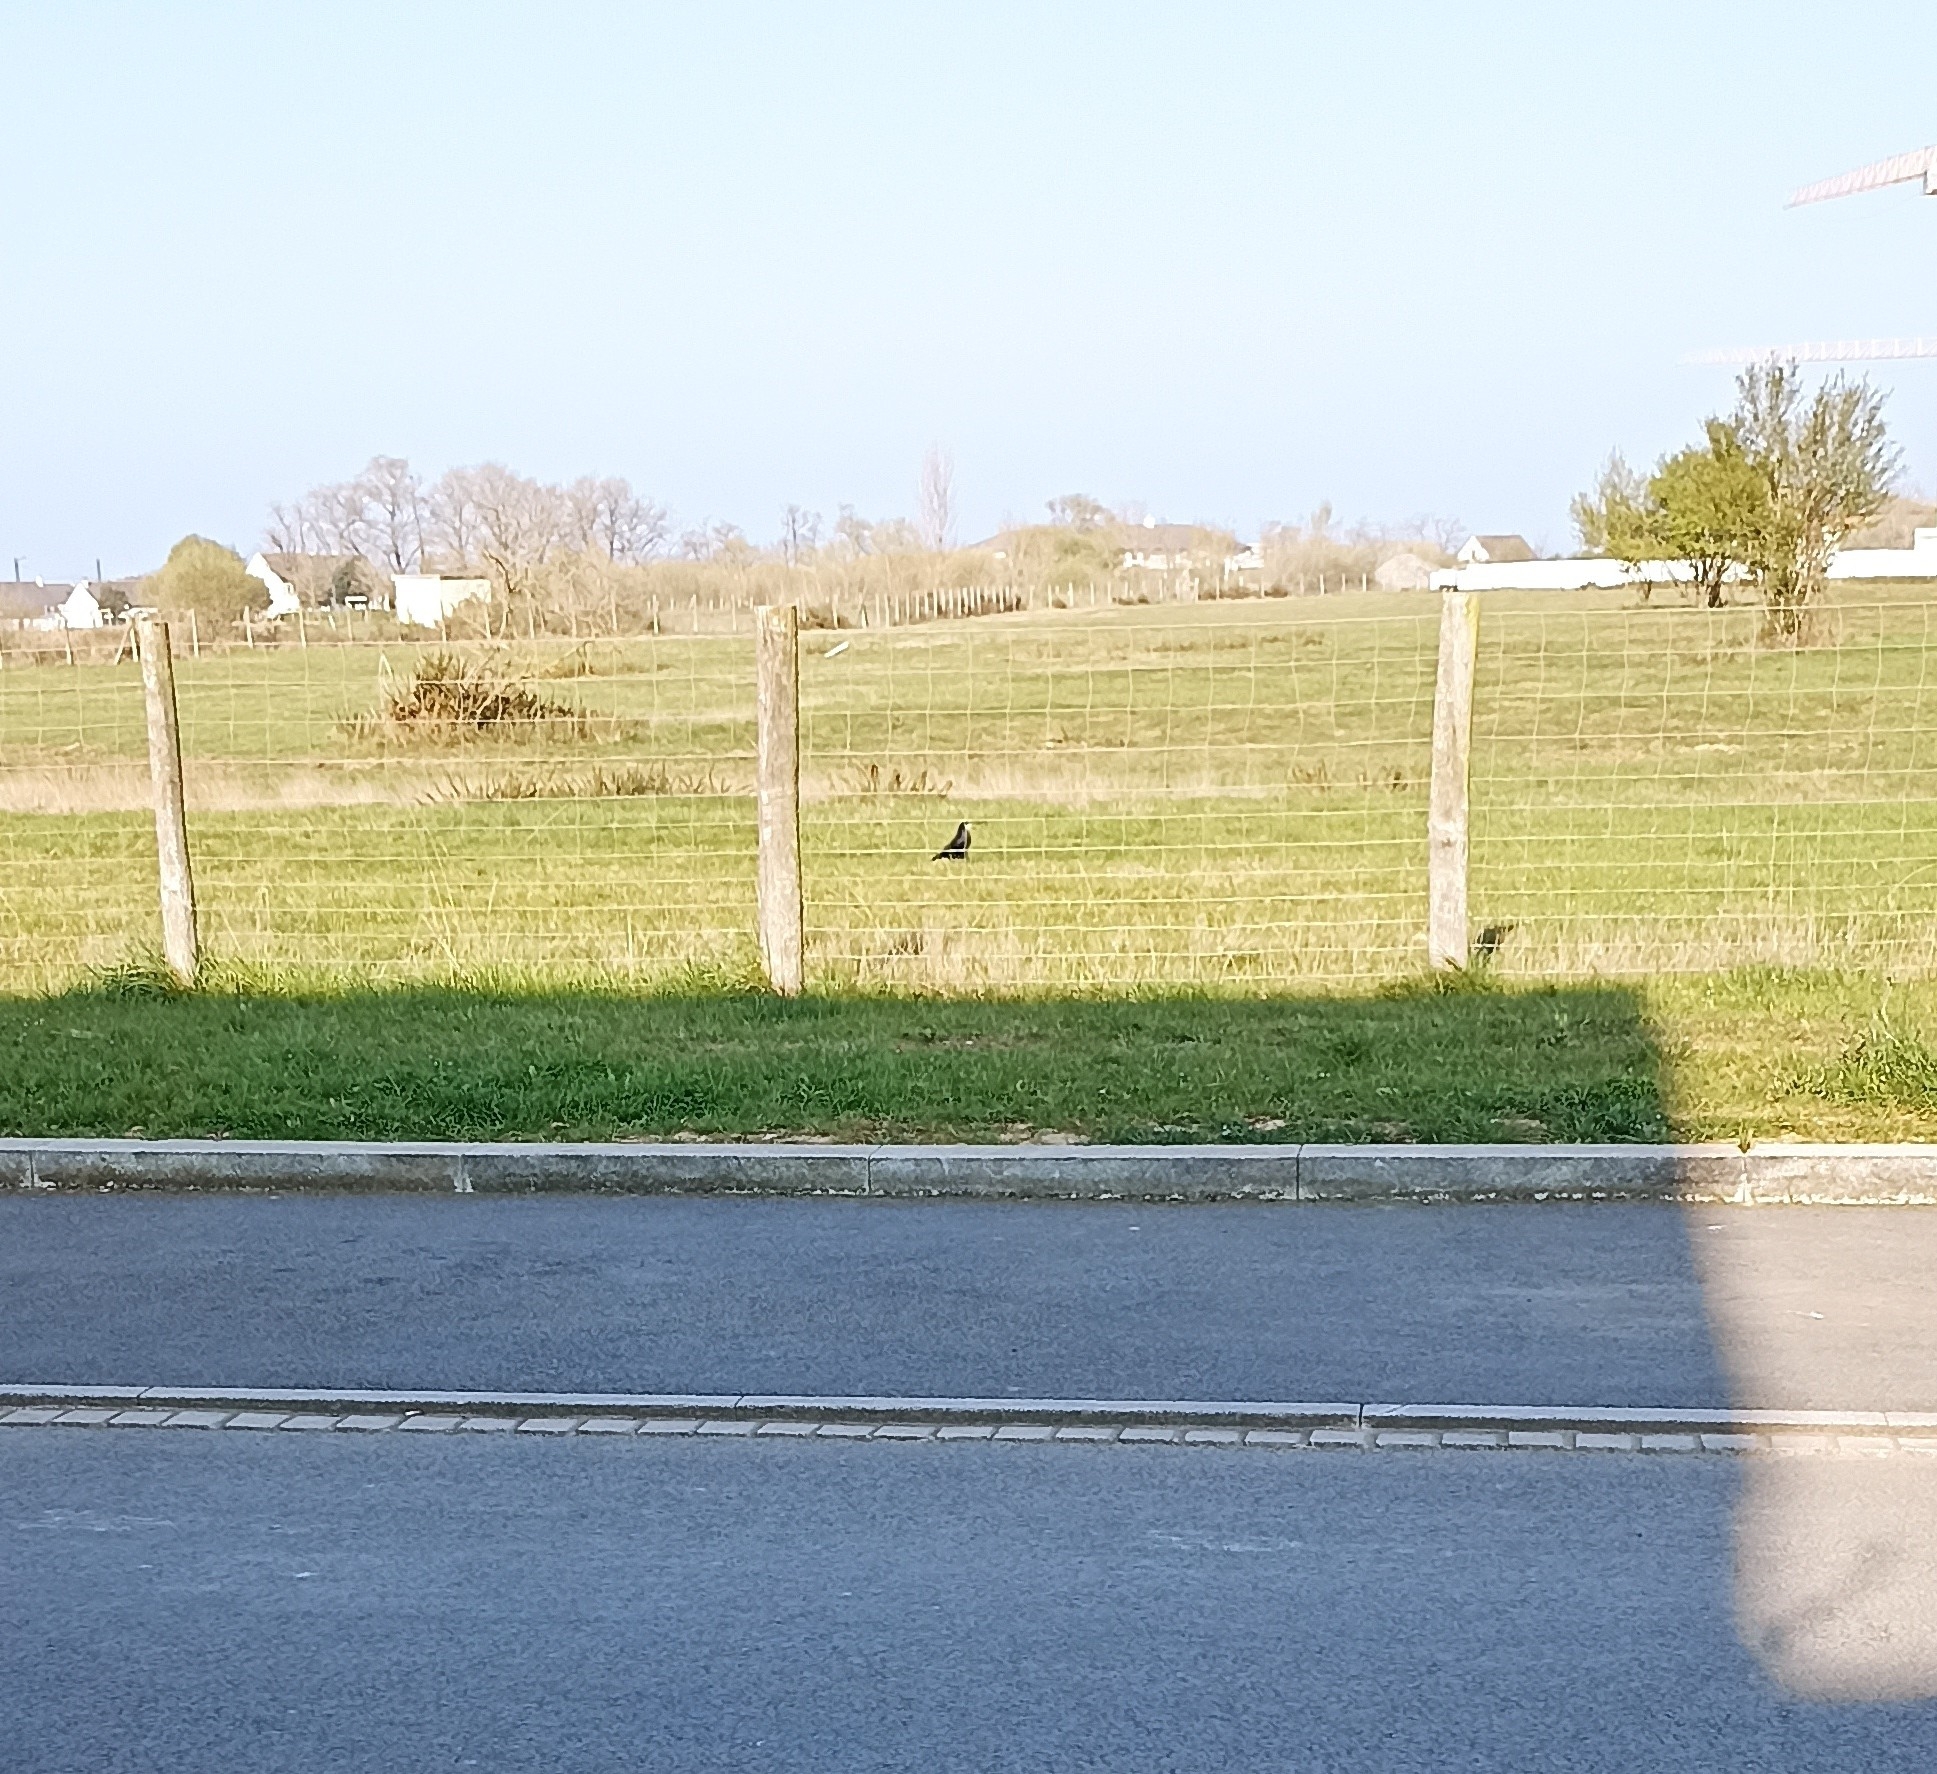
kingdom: Animalia
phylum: Chordata
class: Aves
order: Passeriformes
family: Corvidae
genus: Corvus
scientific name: Corvus frugilegus
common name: Rook
